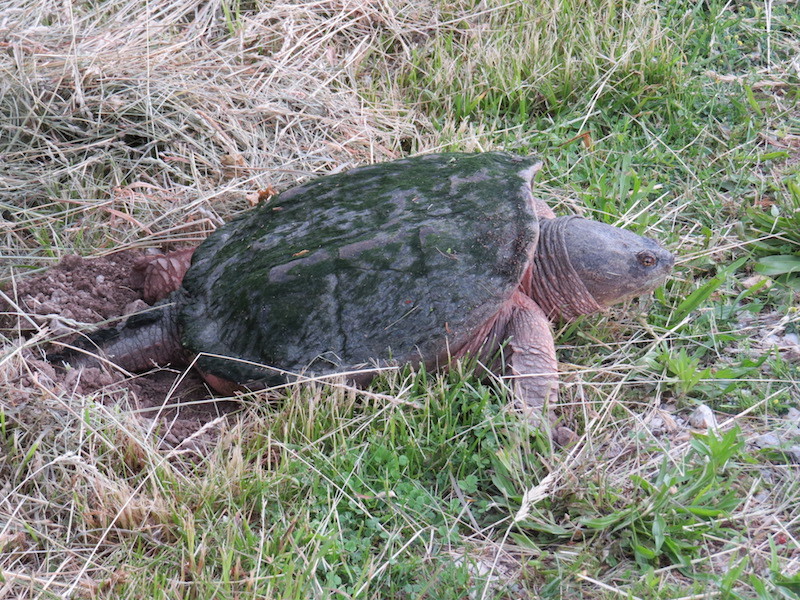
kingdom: Animalia
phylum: Chordata
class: Testudines
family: Chelydridae
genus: Chelydra
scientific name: Chelydra serpentina
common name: Common snapping turtle
